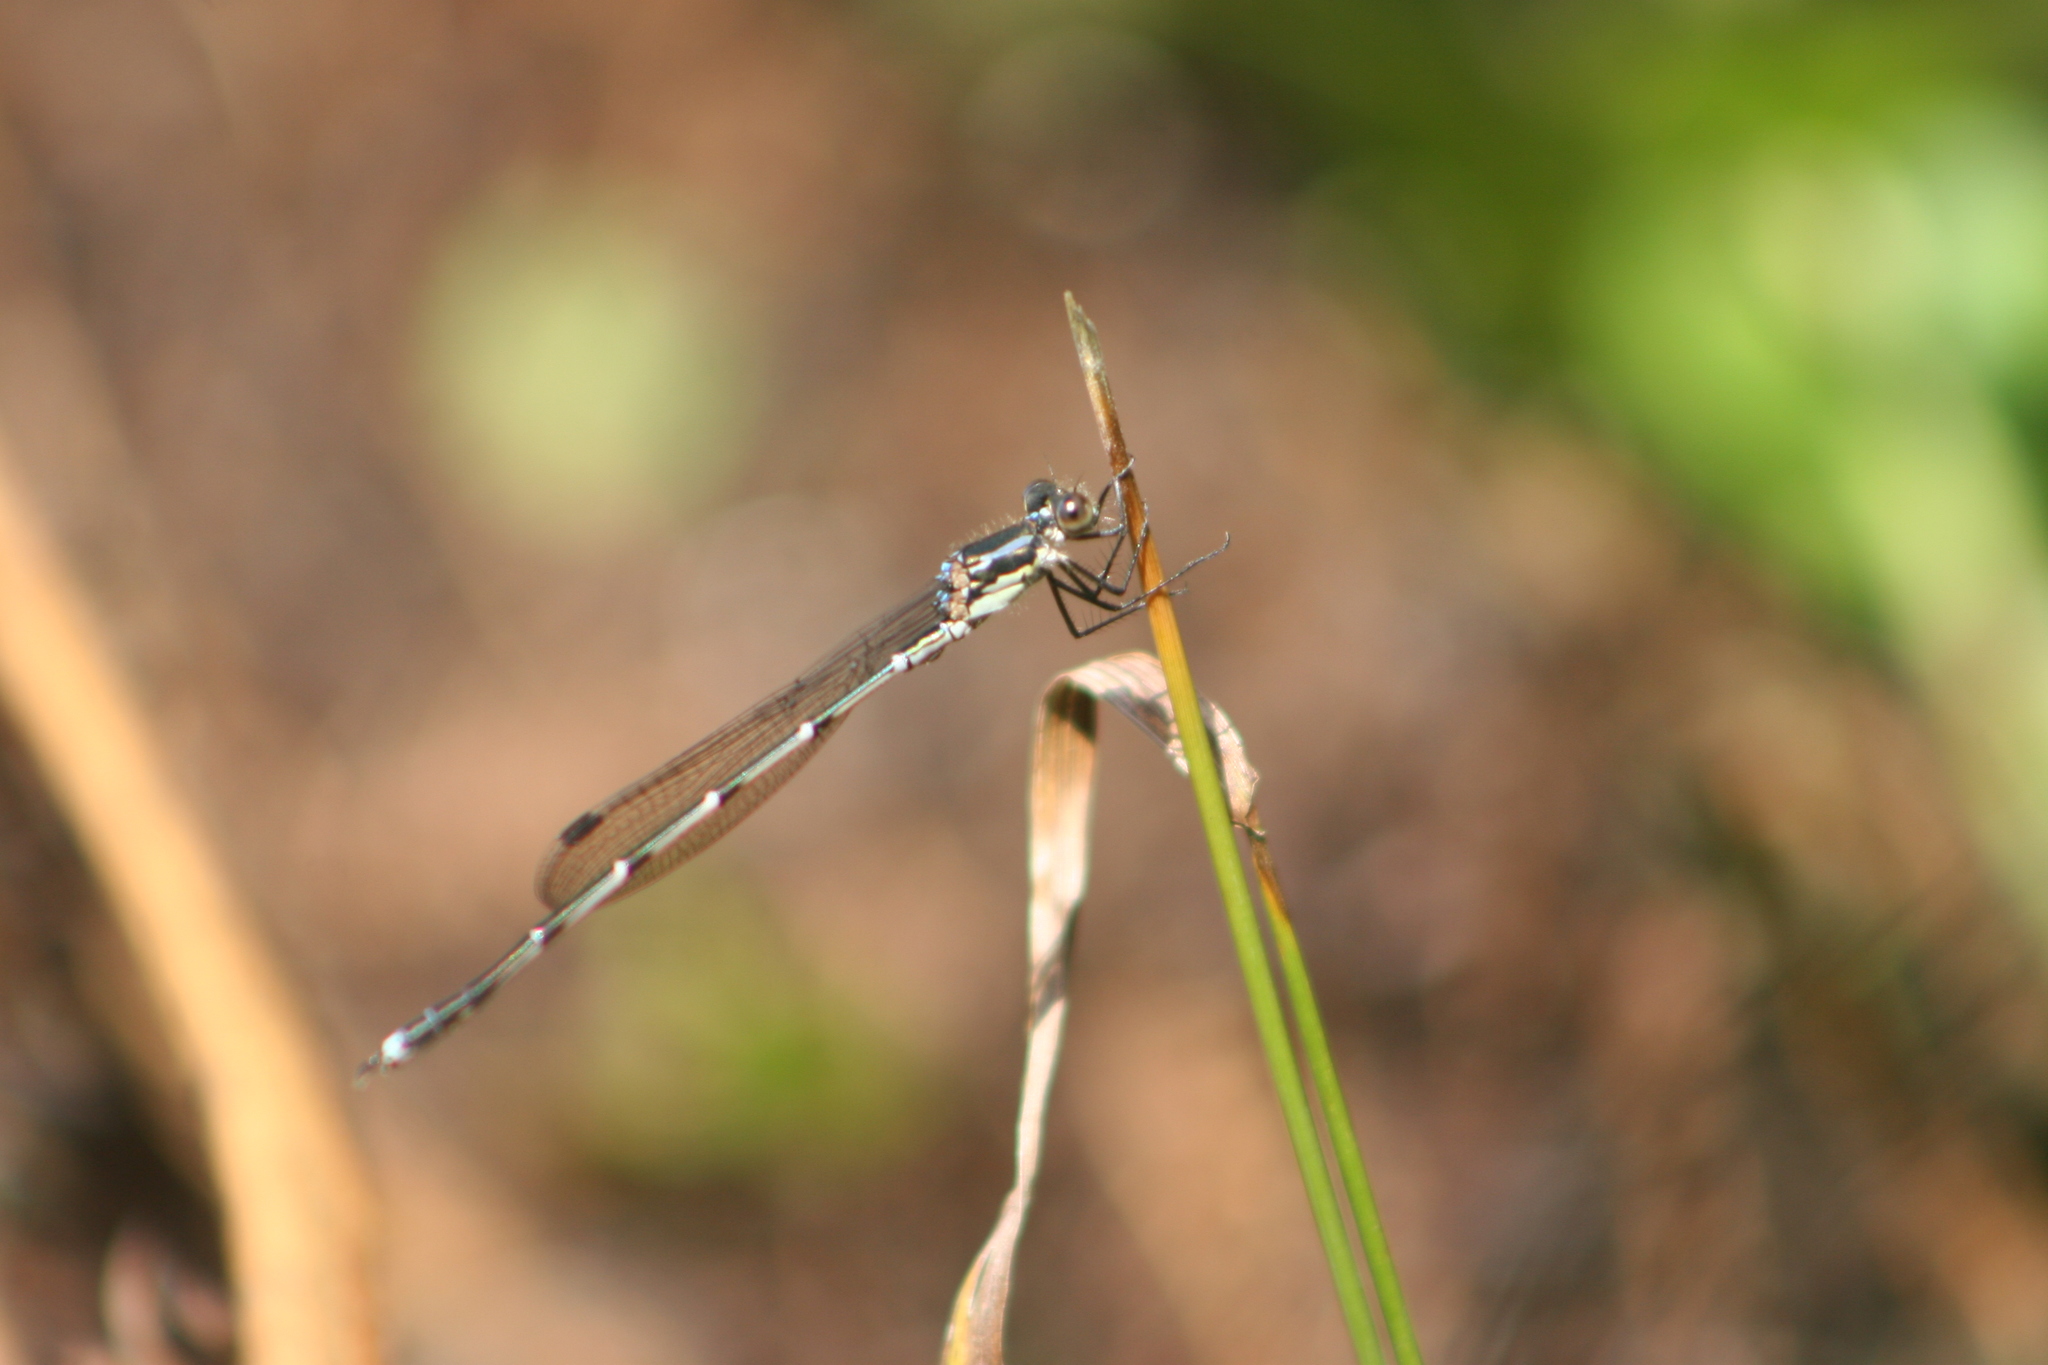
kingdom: Animalia
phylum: Arthropoda
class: Insecta
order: Odonata
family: Lestidae
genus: Austrolestes
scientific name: Austrolestes colensonis
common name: Blue damselfly
